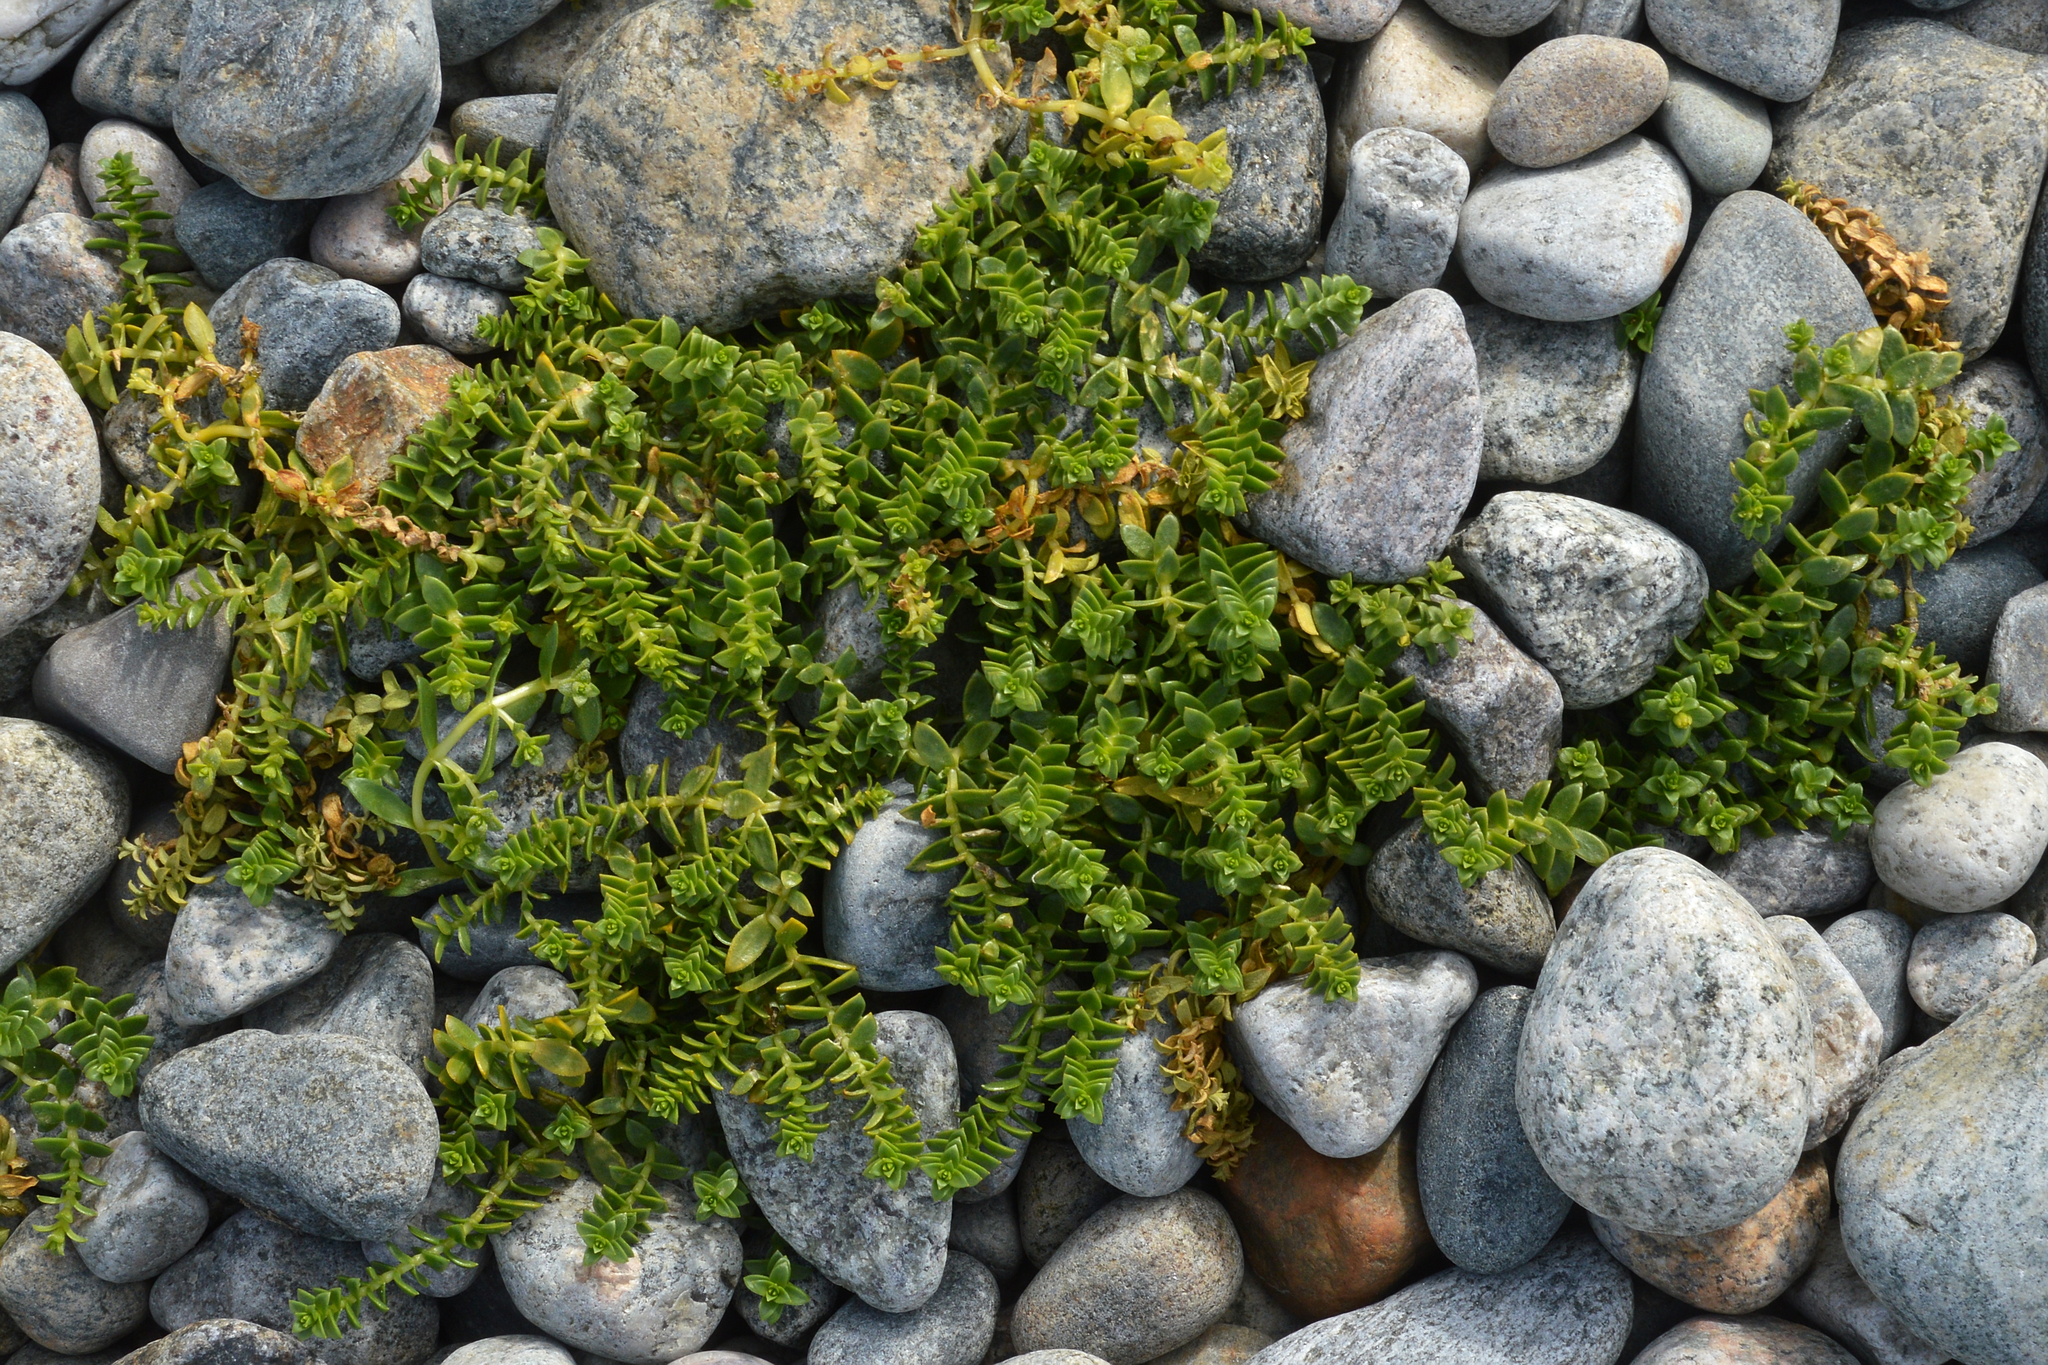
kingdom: Plantae
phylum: Tracheophyta
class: Magnoliopsida
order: Caryophyllales
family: Caryophyllaceae
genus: Honckenya
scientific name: Honckenya peploides
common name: Sea sandwort
